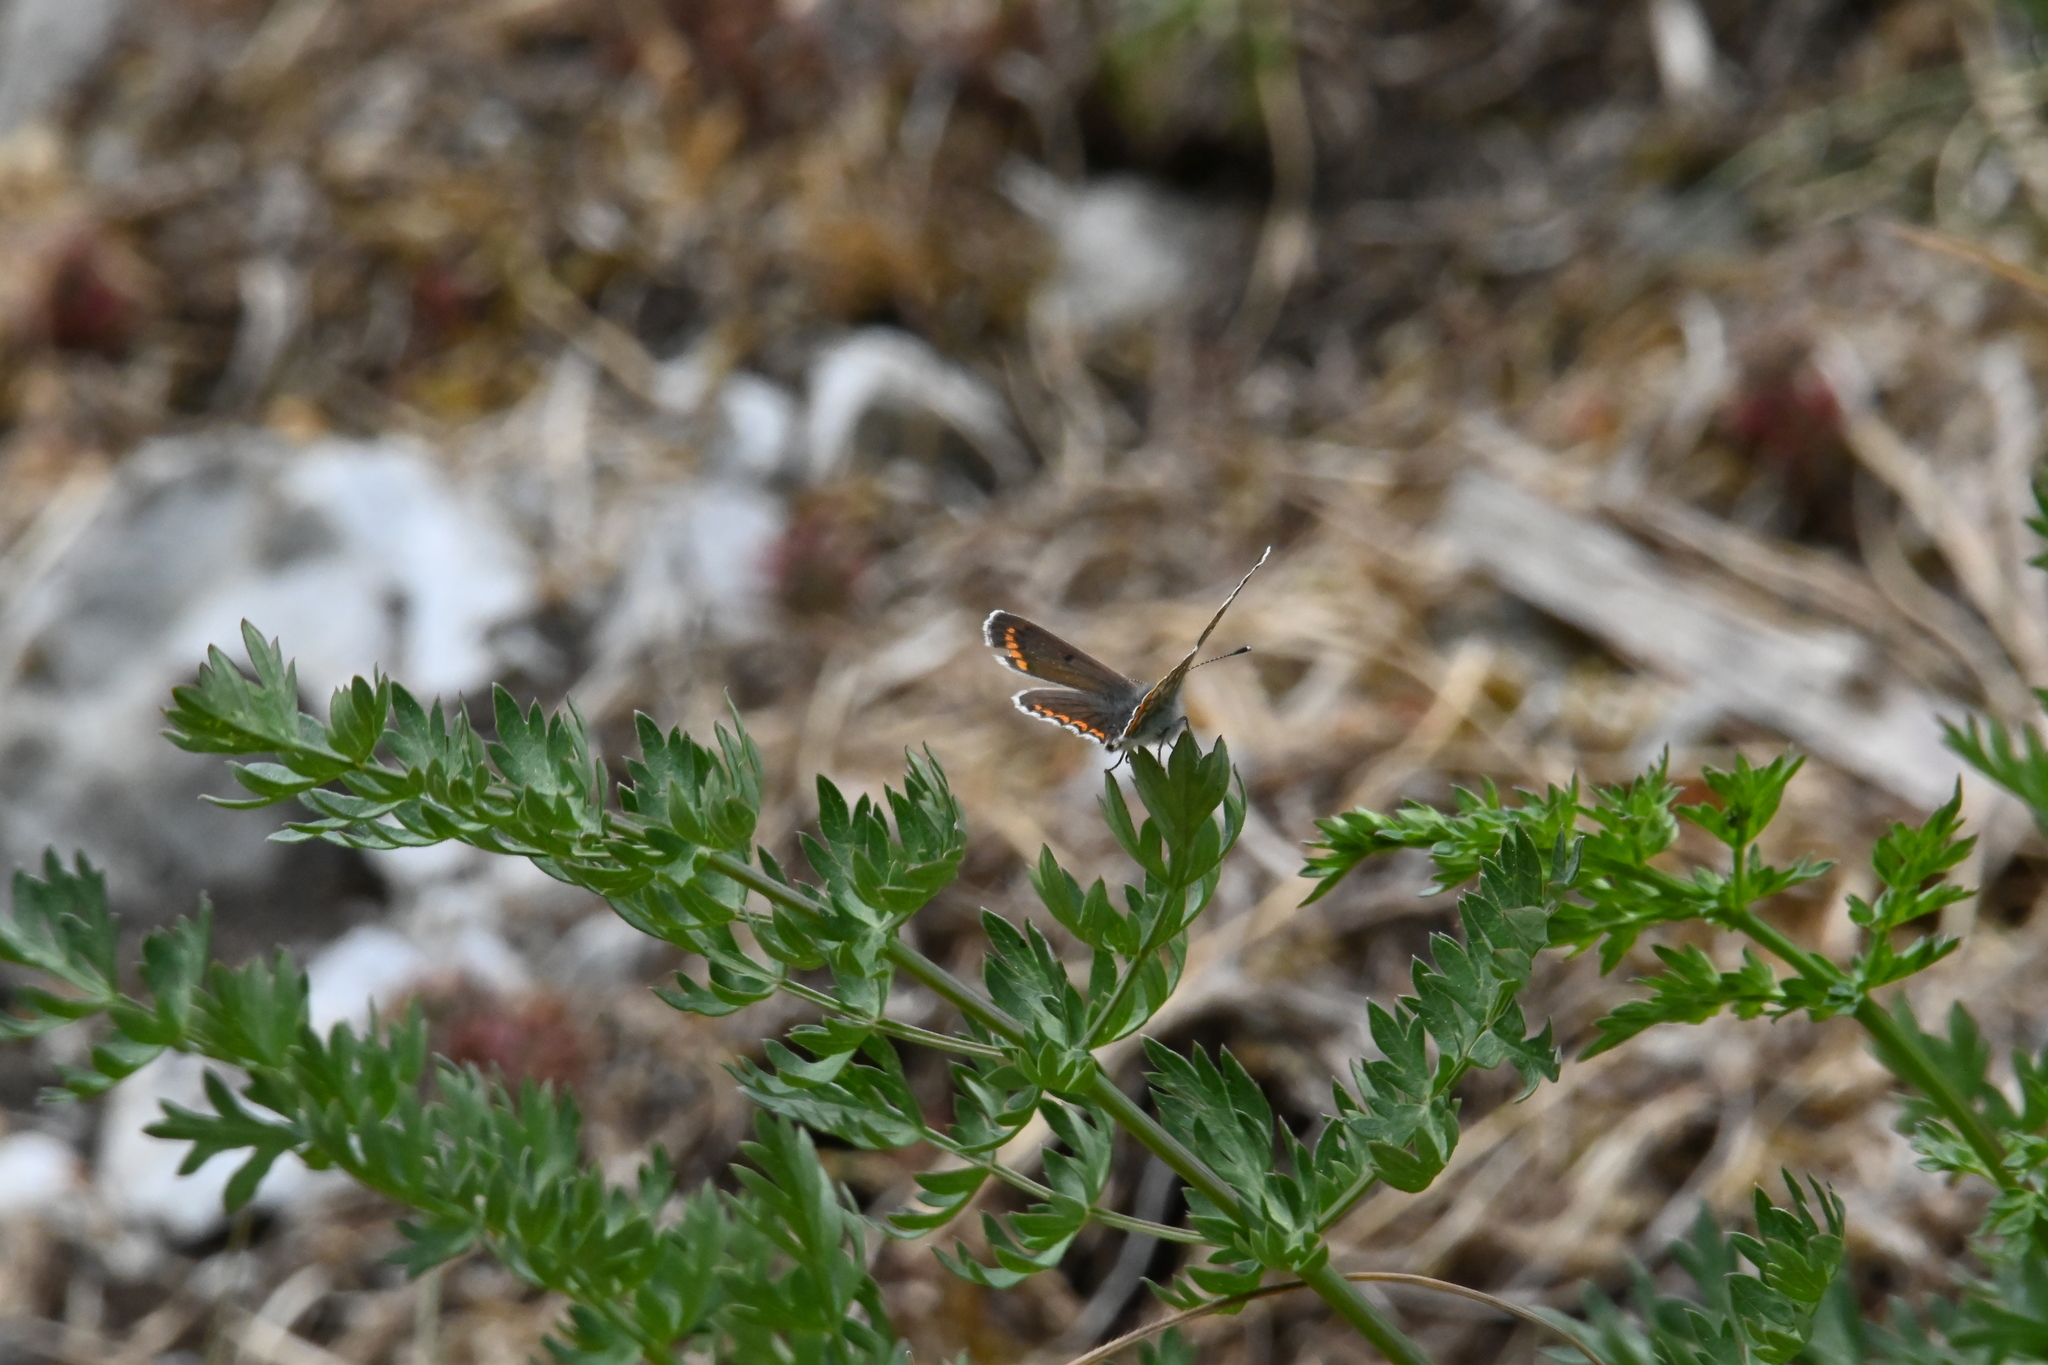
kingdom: Animalia
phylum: Arthropoda
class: Insecta
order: Lepidoptera
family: Lycaenidae
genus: Aricia
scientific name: Aricia agestis
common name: Brown argus
